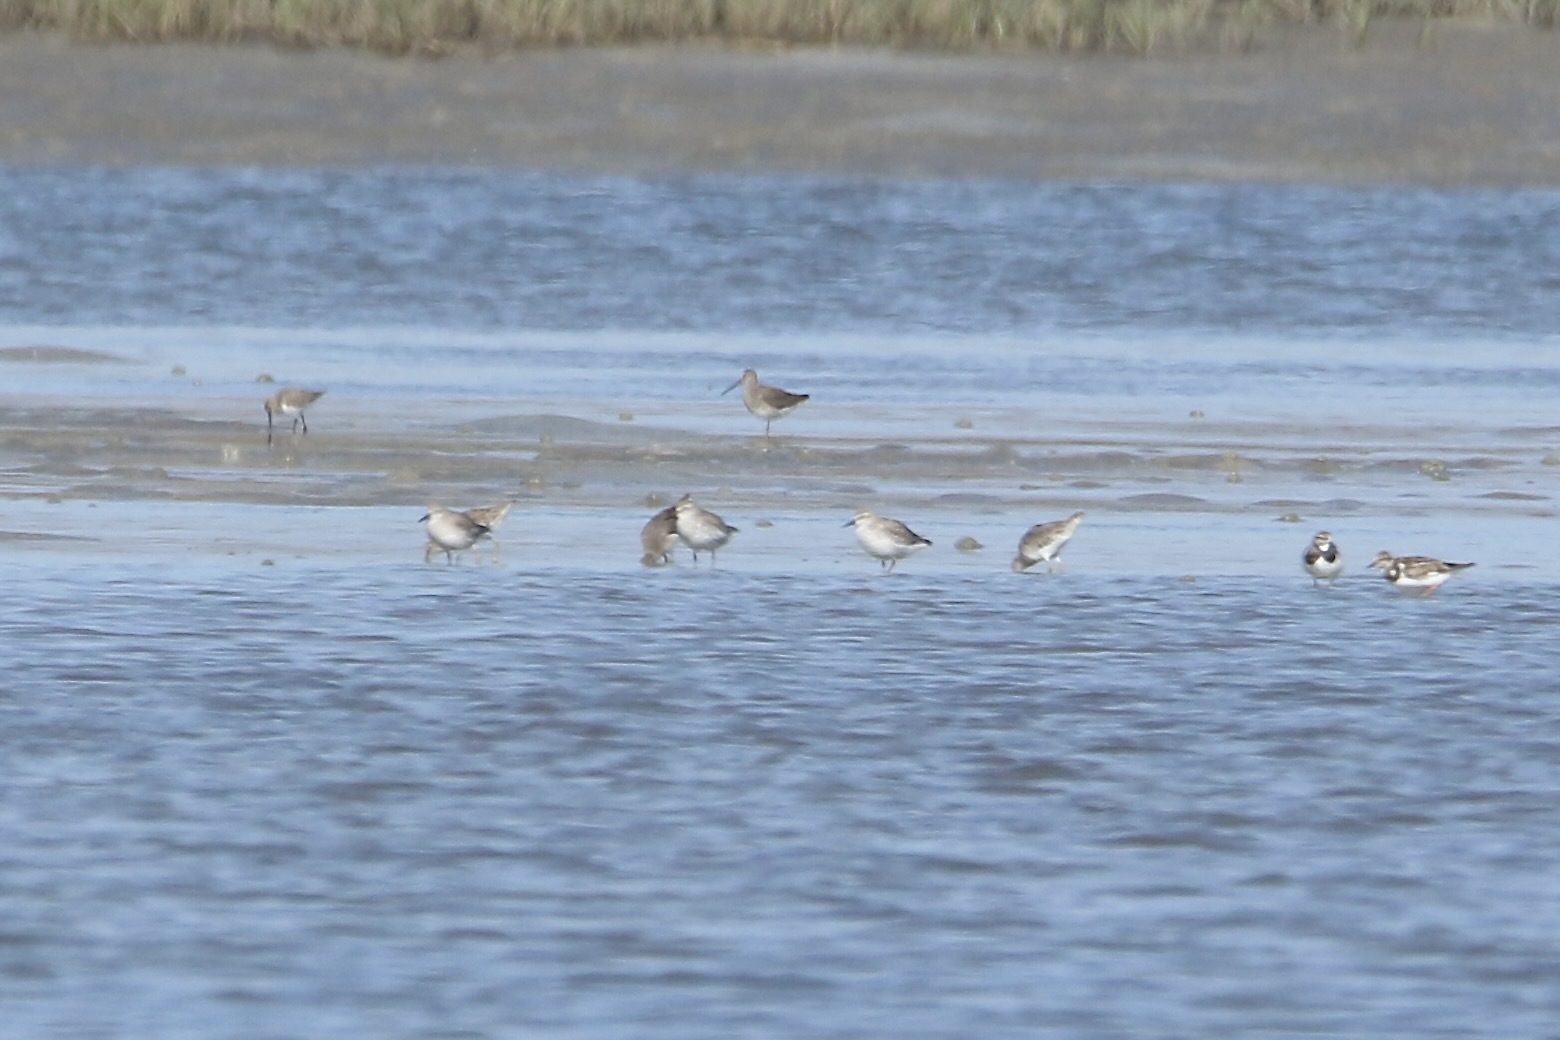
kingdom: Animalia
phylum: Chordata
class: Aves
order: Charadriiformes
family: Scolopacidae
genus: Calidris
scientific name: Calidris canutus
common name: Red knot
